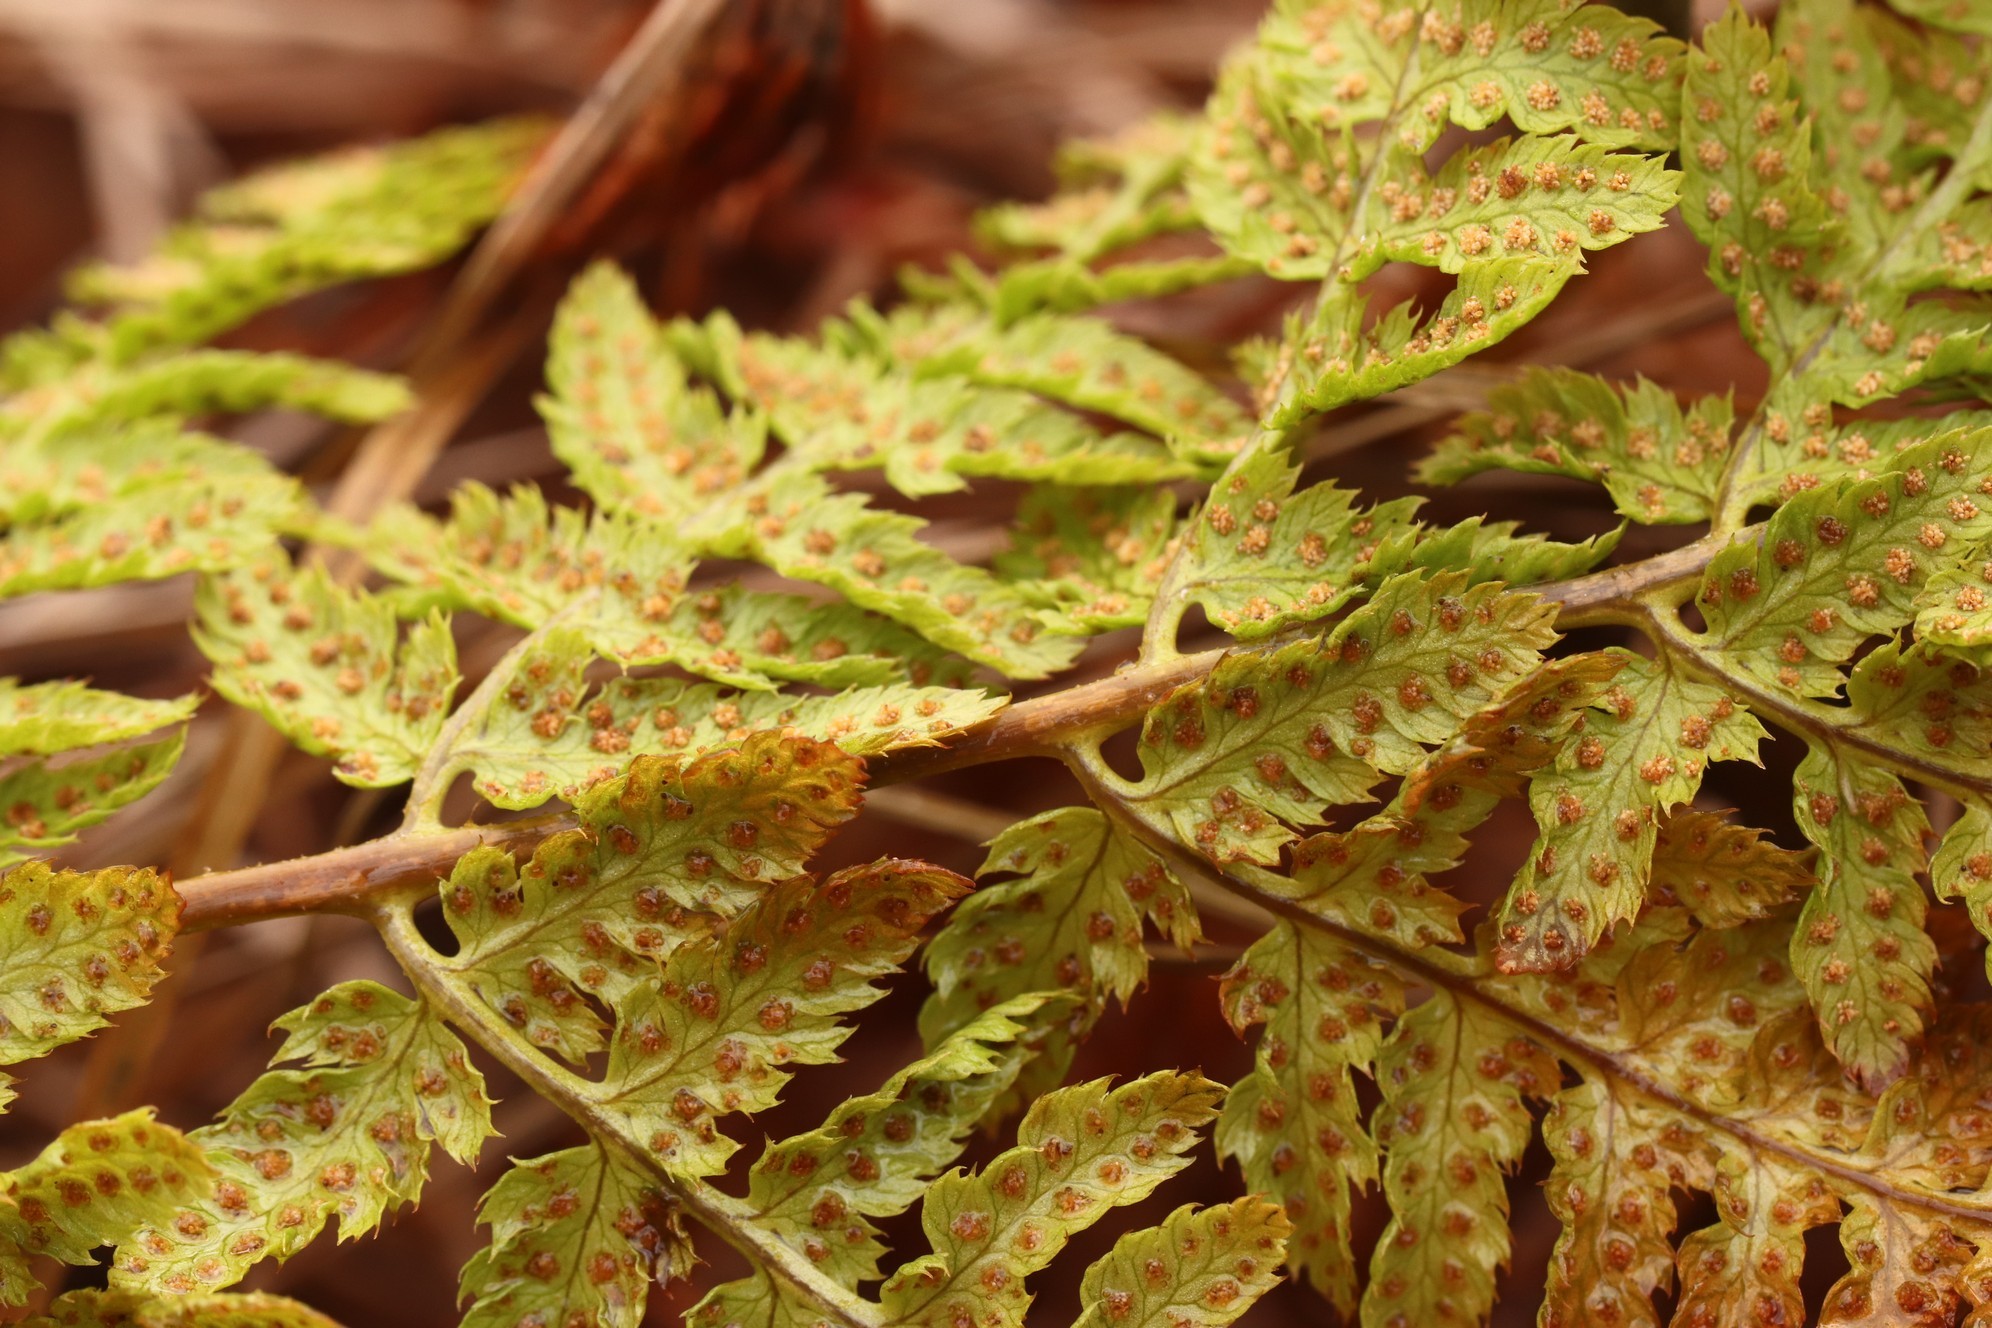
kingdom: Plantae
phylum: Tracheophyta
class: Polypodiopsida
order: Polypodiales
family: Dryopteridaceae
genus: Dryopteris
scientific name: Dryopteris carthusiana
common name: Narrow buckler-fern
